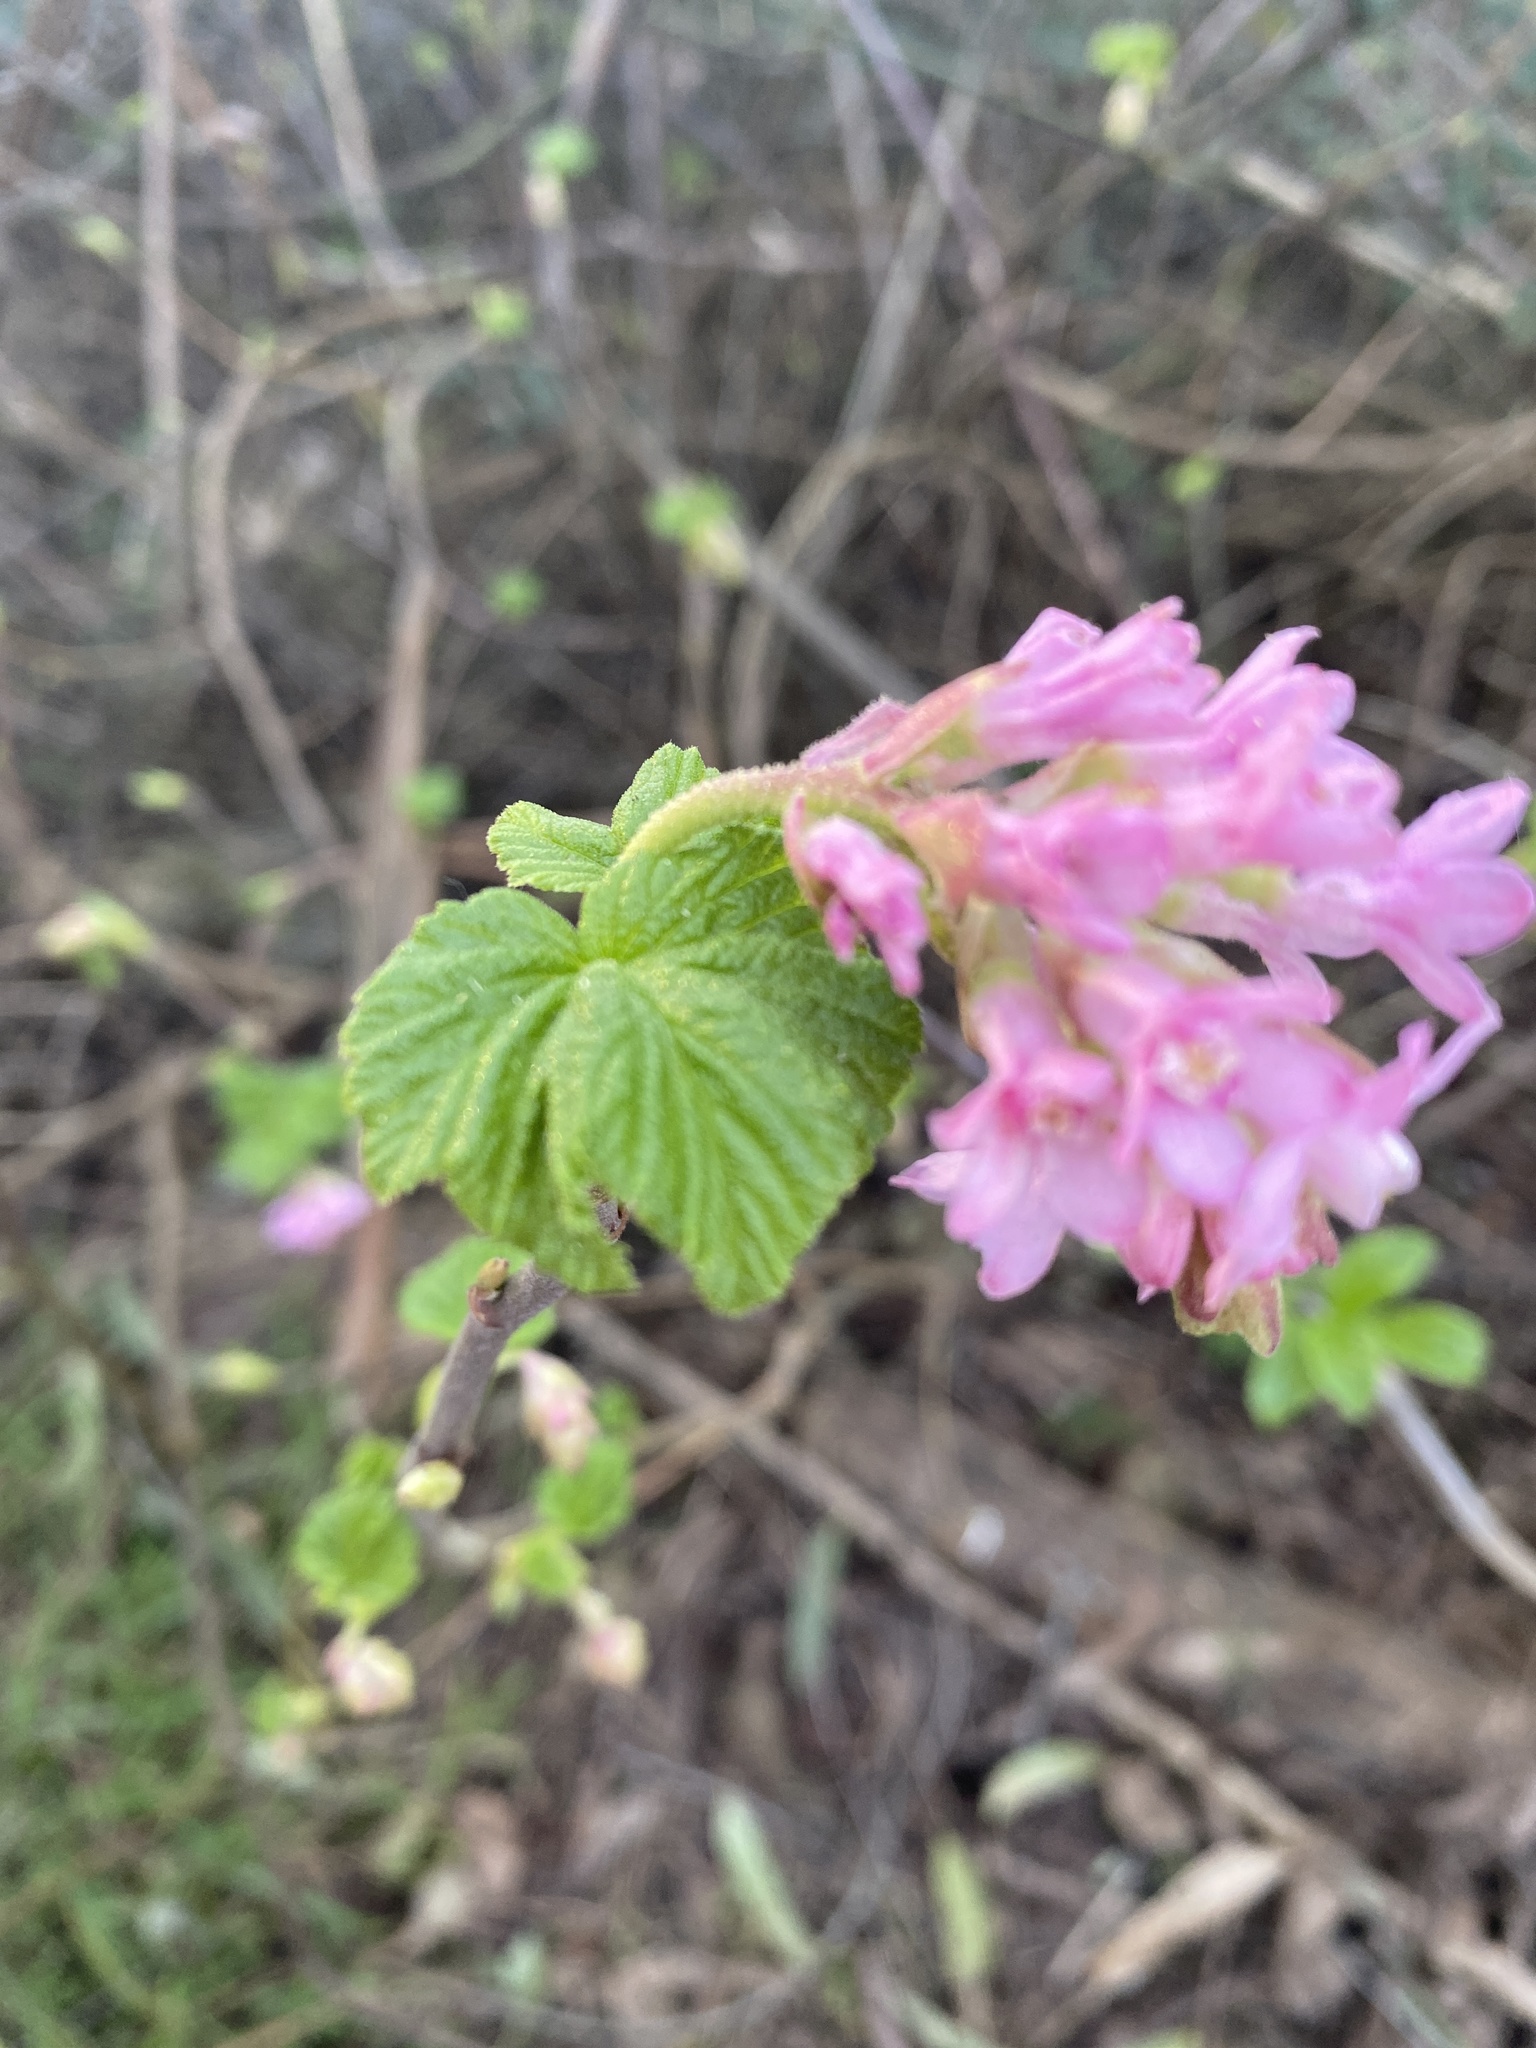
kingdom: Plantae
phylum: Tracheophyta
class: Magnoliopsida
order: Saxifragales
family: Grossulariaceae
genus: Ribes
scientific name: Ribes sanguineum
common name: Flowering currant
